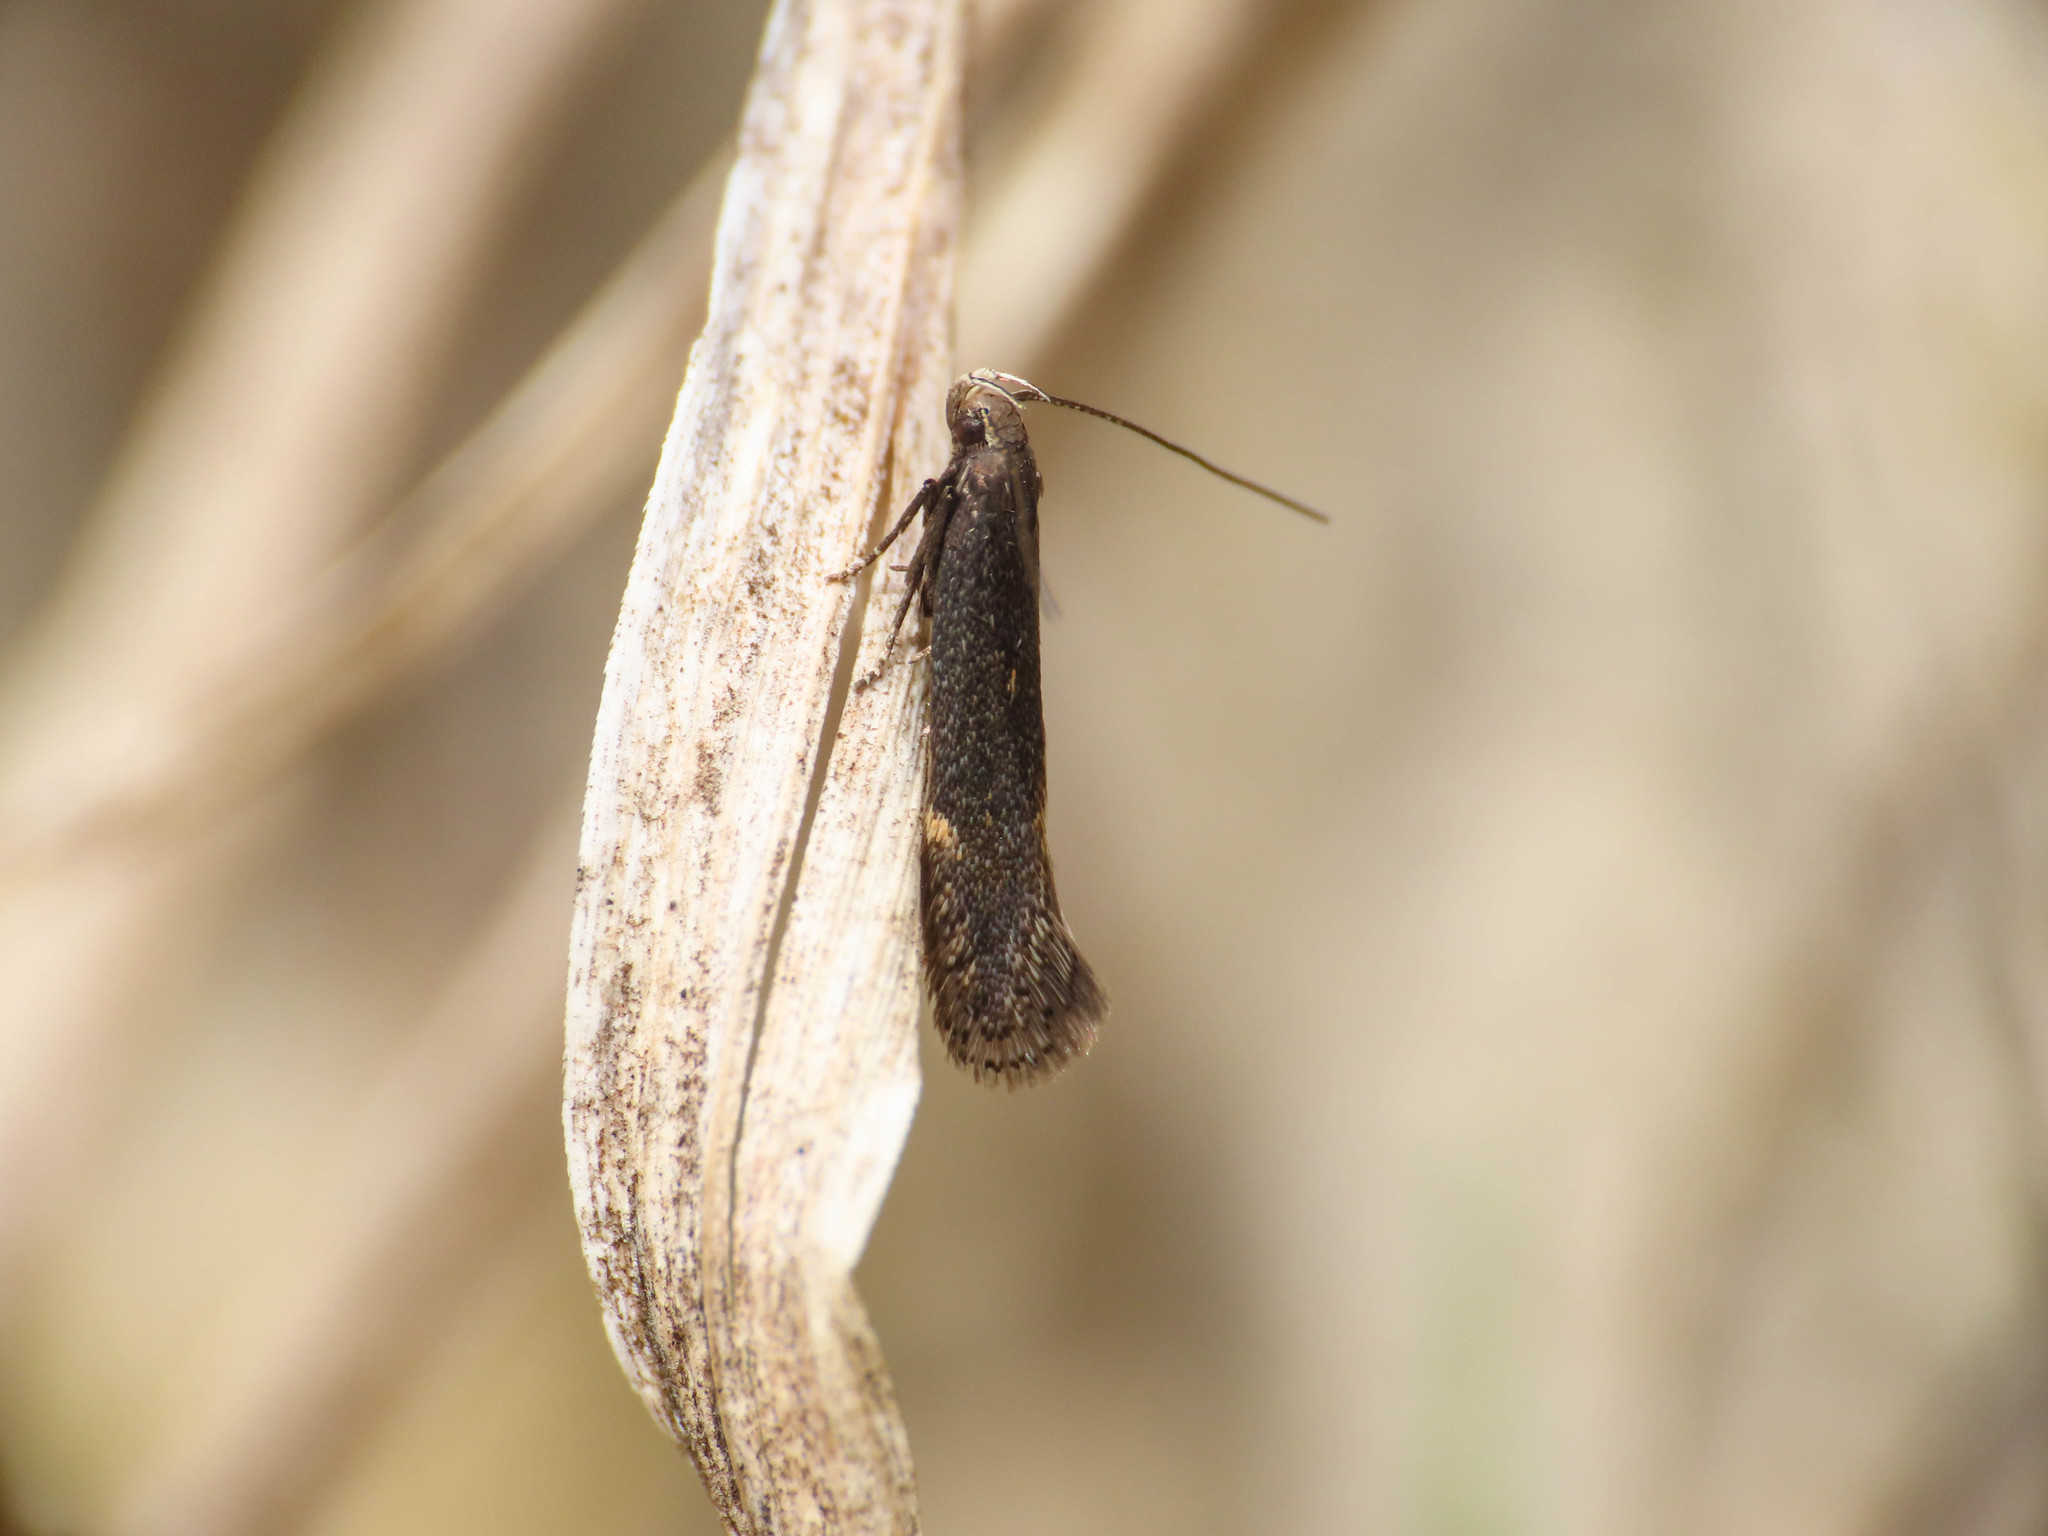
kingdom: Animalia
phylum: Arthropoda
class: Insecta
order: Lepidoptera
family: Gelechiidae
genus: Aproaerema
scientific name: Aproaerema anthyllidella
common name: Vetch sober
